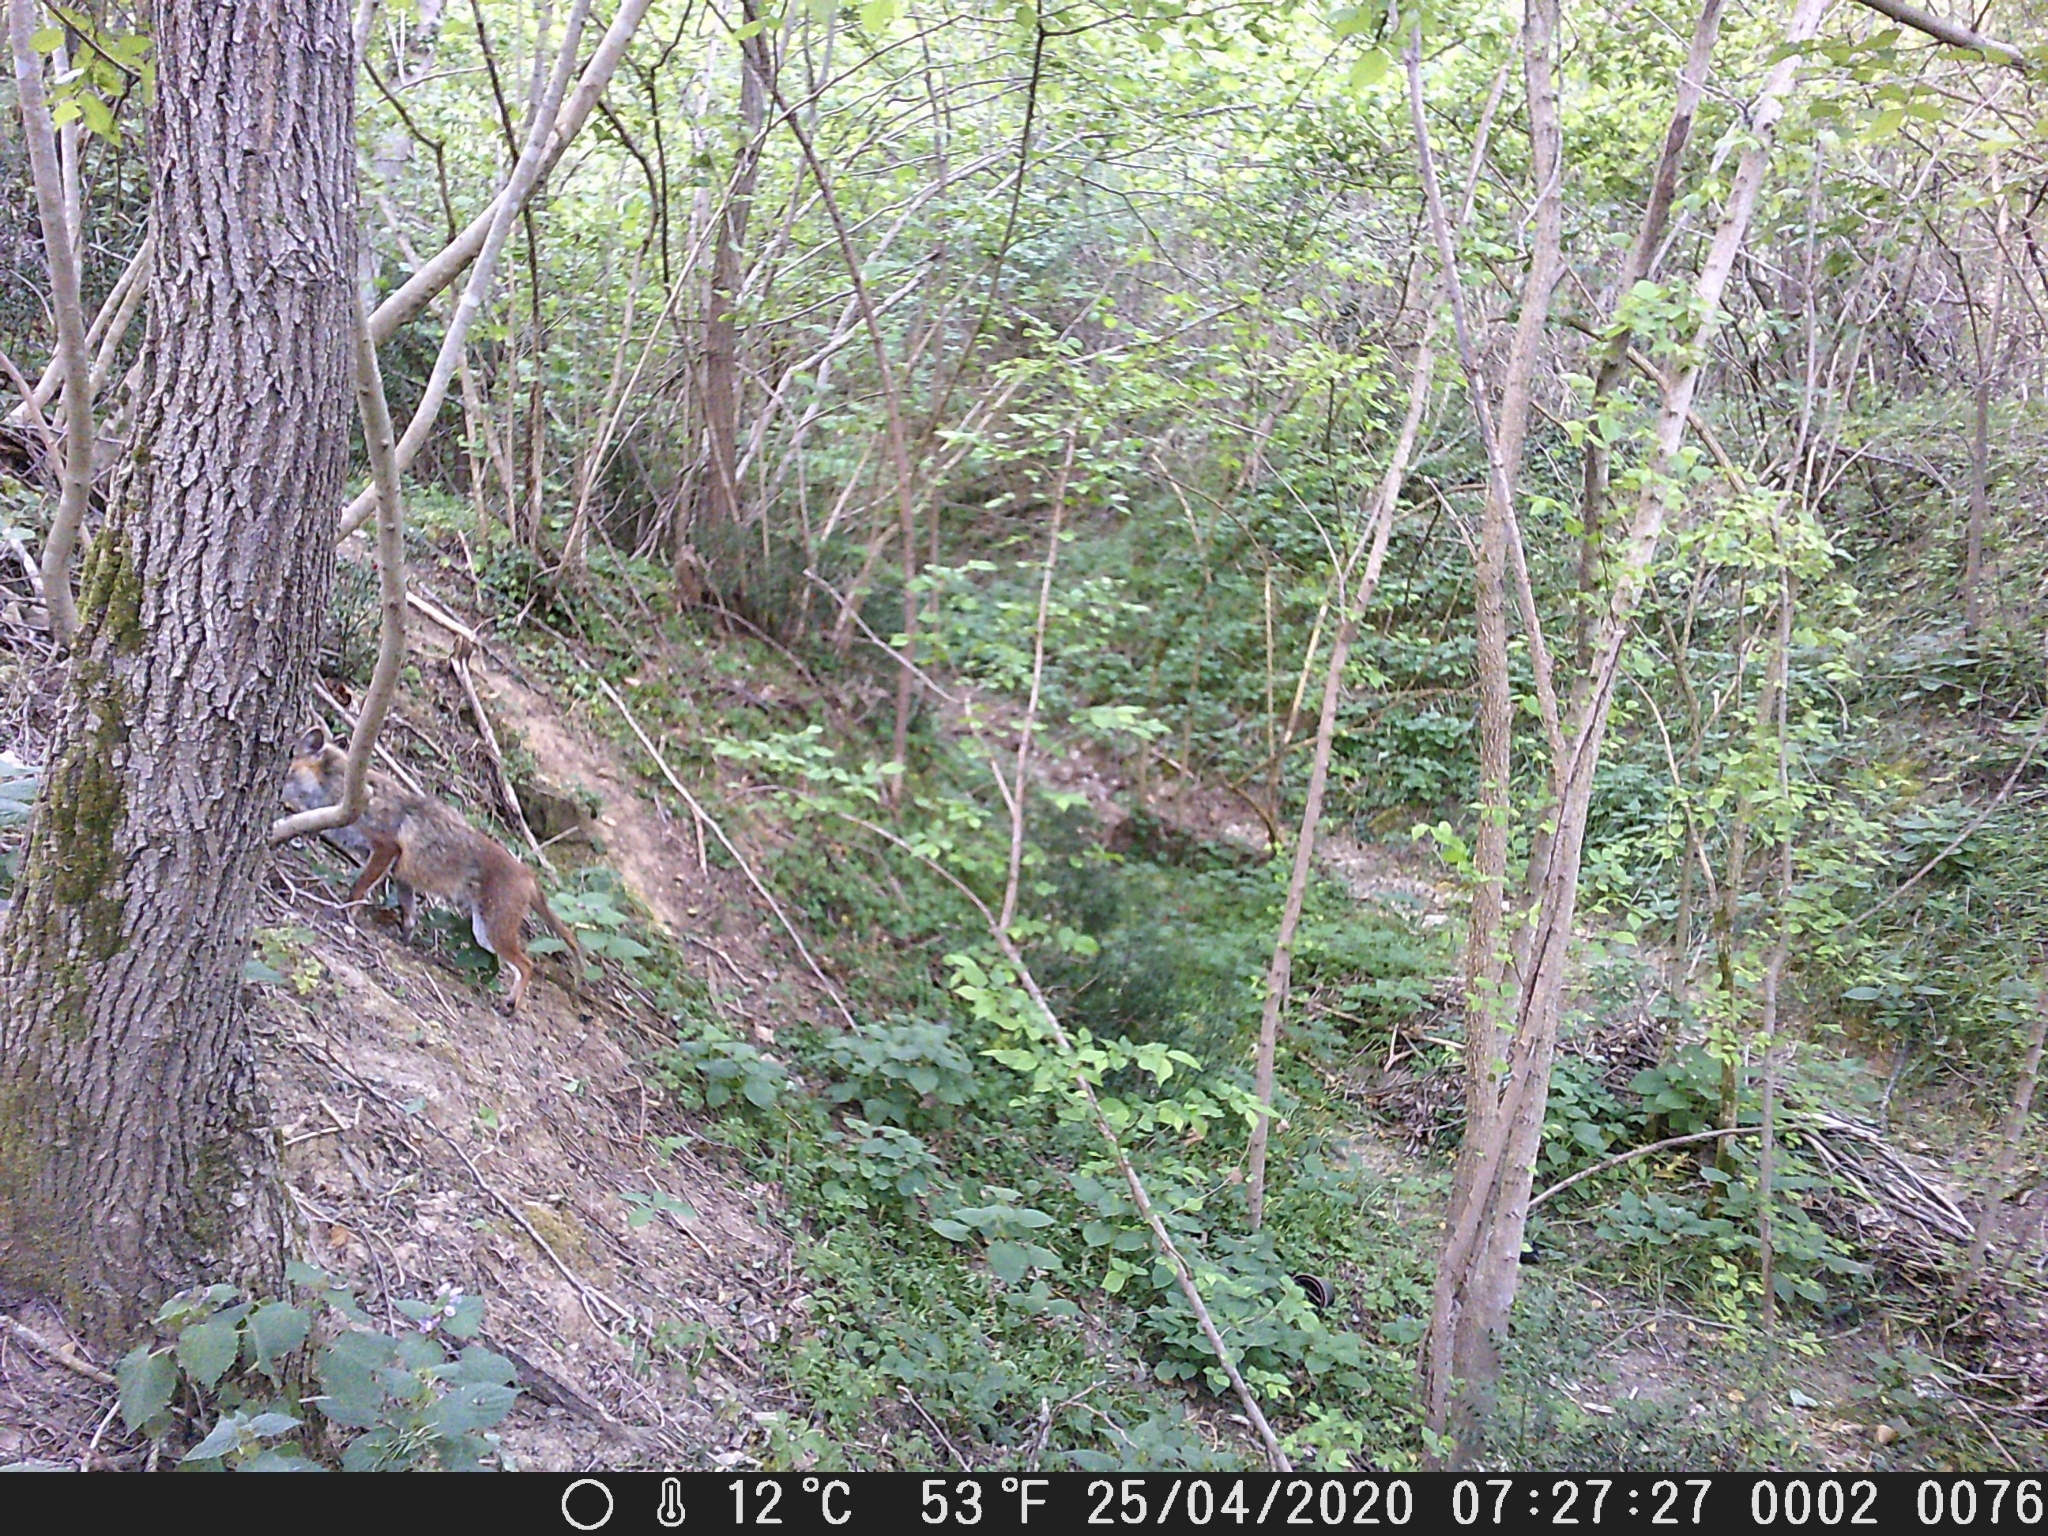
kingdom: Animalia
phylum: Chordata
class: Mammalia
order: Carnivora
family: Canidae
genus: Vulpes
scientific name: Vulpes vulpes
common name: Red fox
